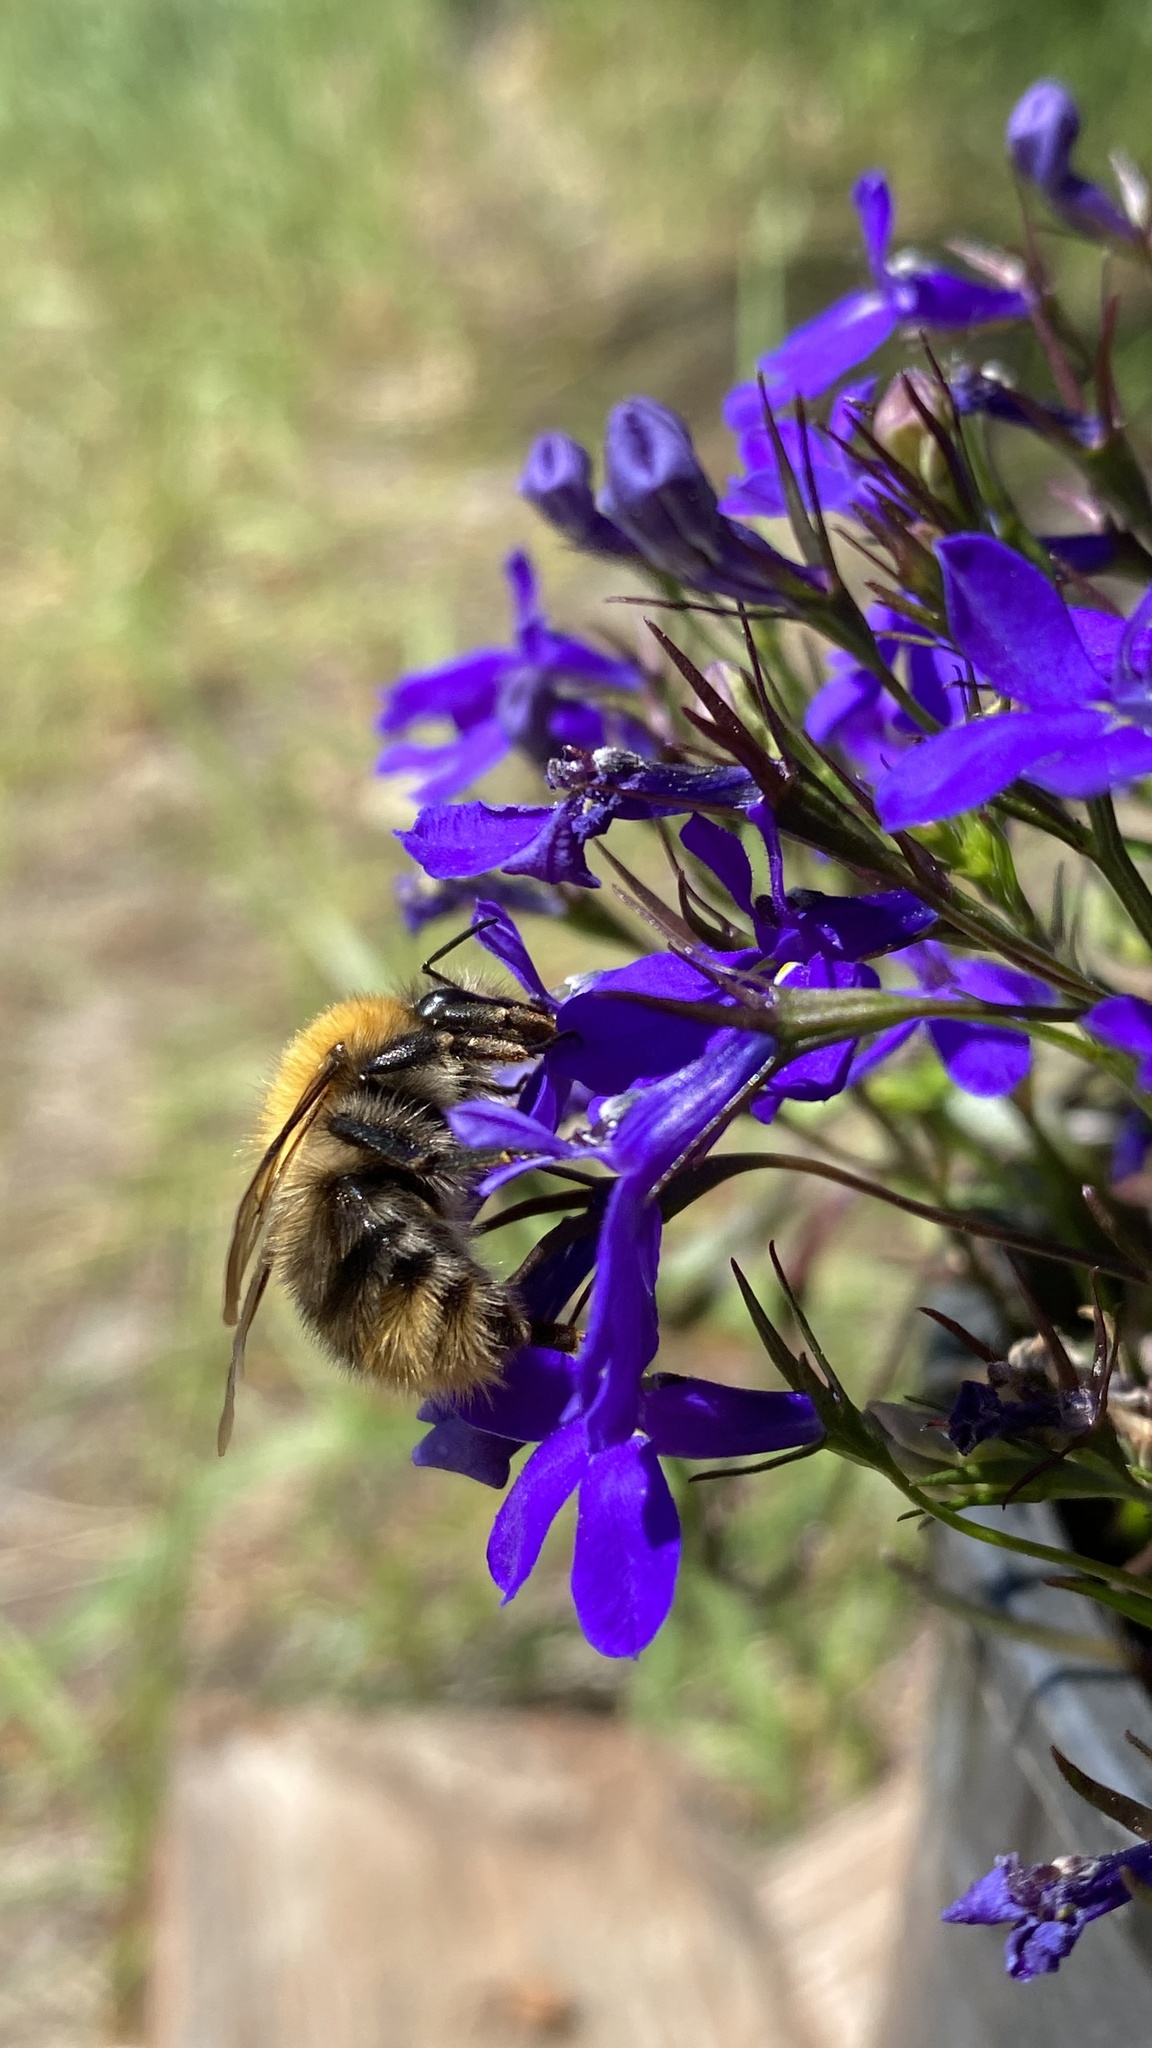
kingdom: Animalia
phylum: Arthropoda
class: Insecta
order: Hymenoptera
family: Apidae
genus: Bombus
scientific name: Bombus pascuorum
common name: Common carder bee
